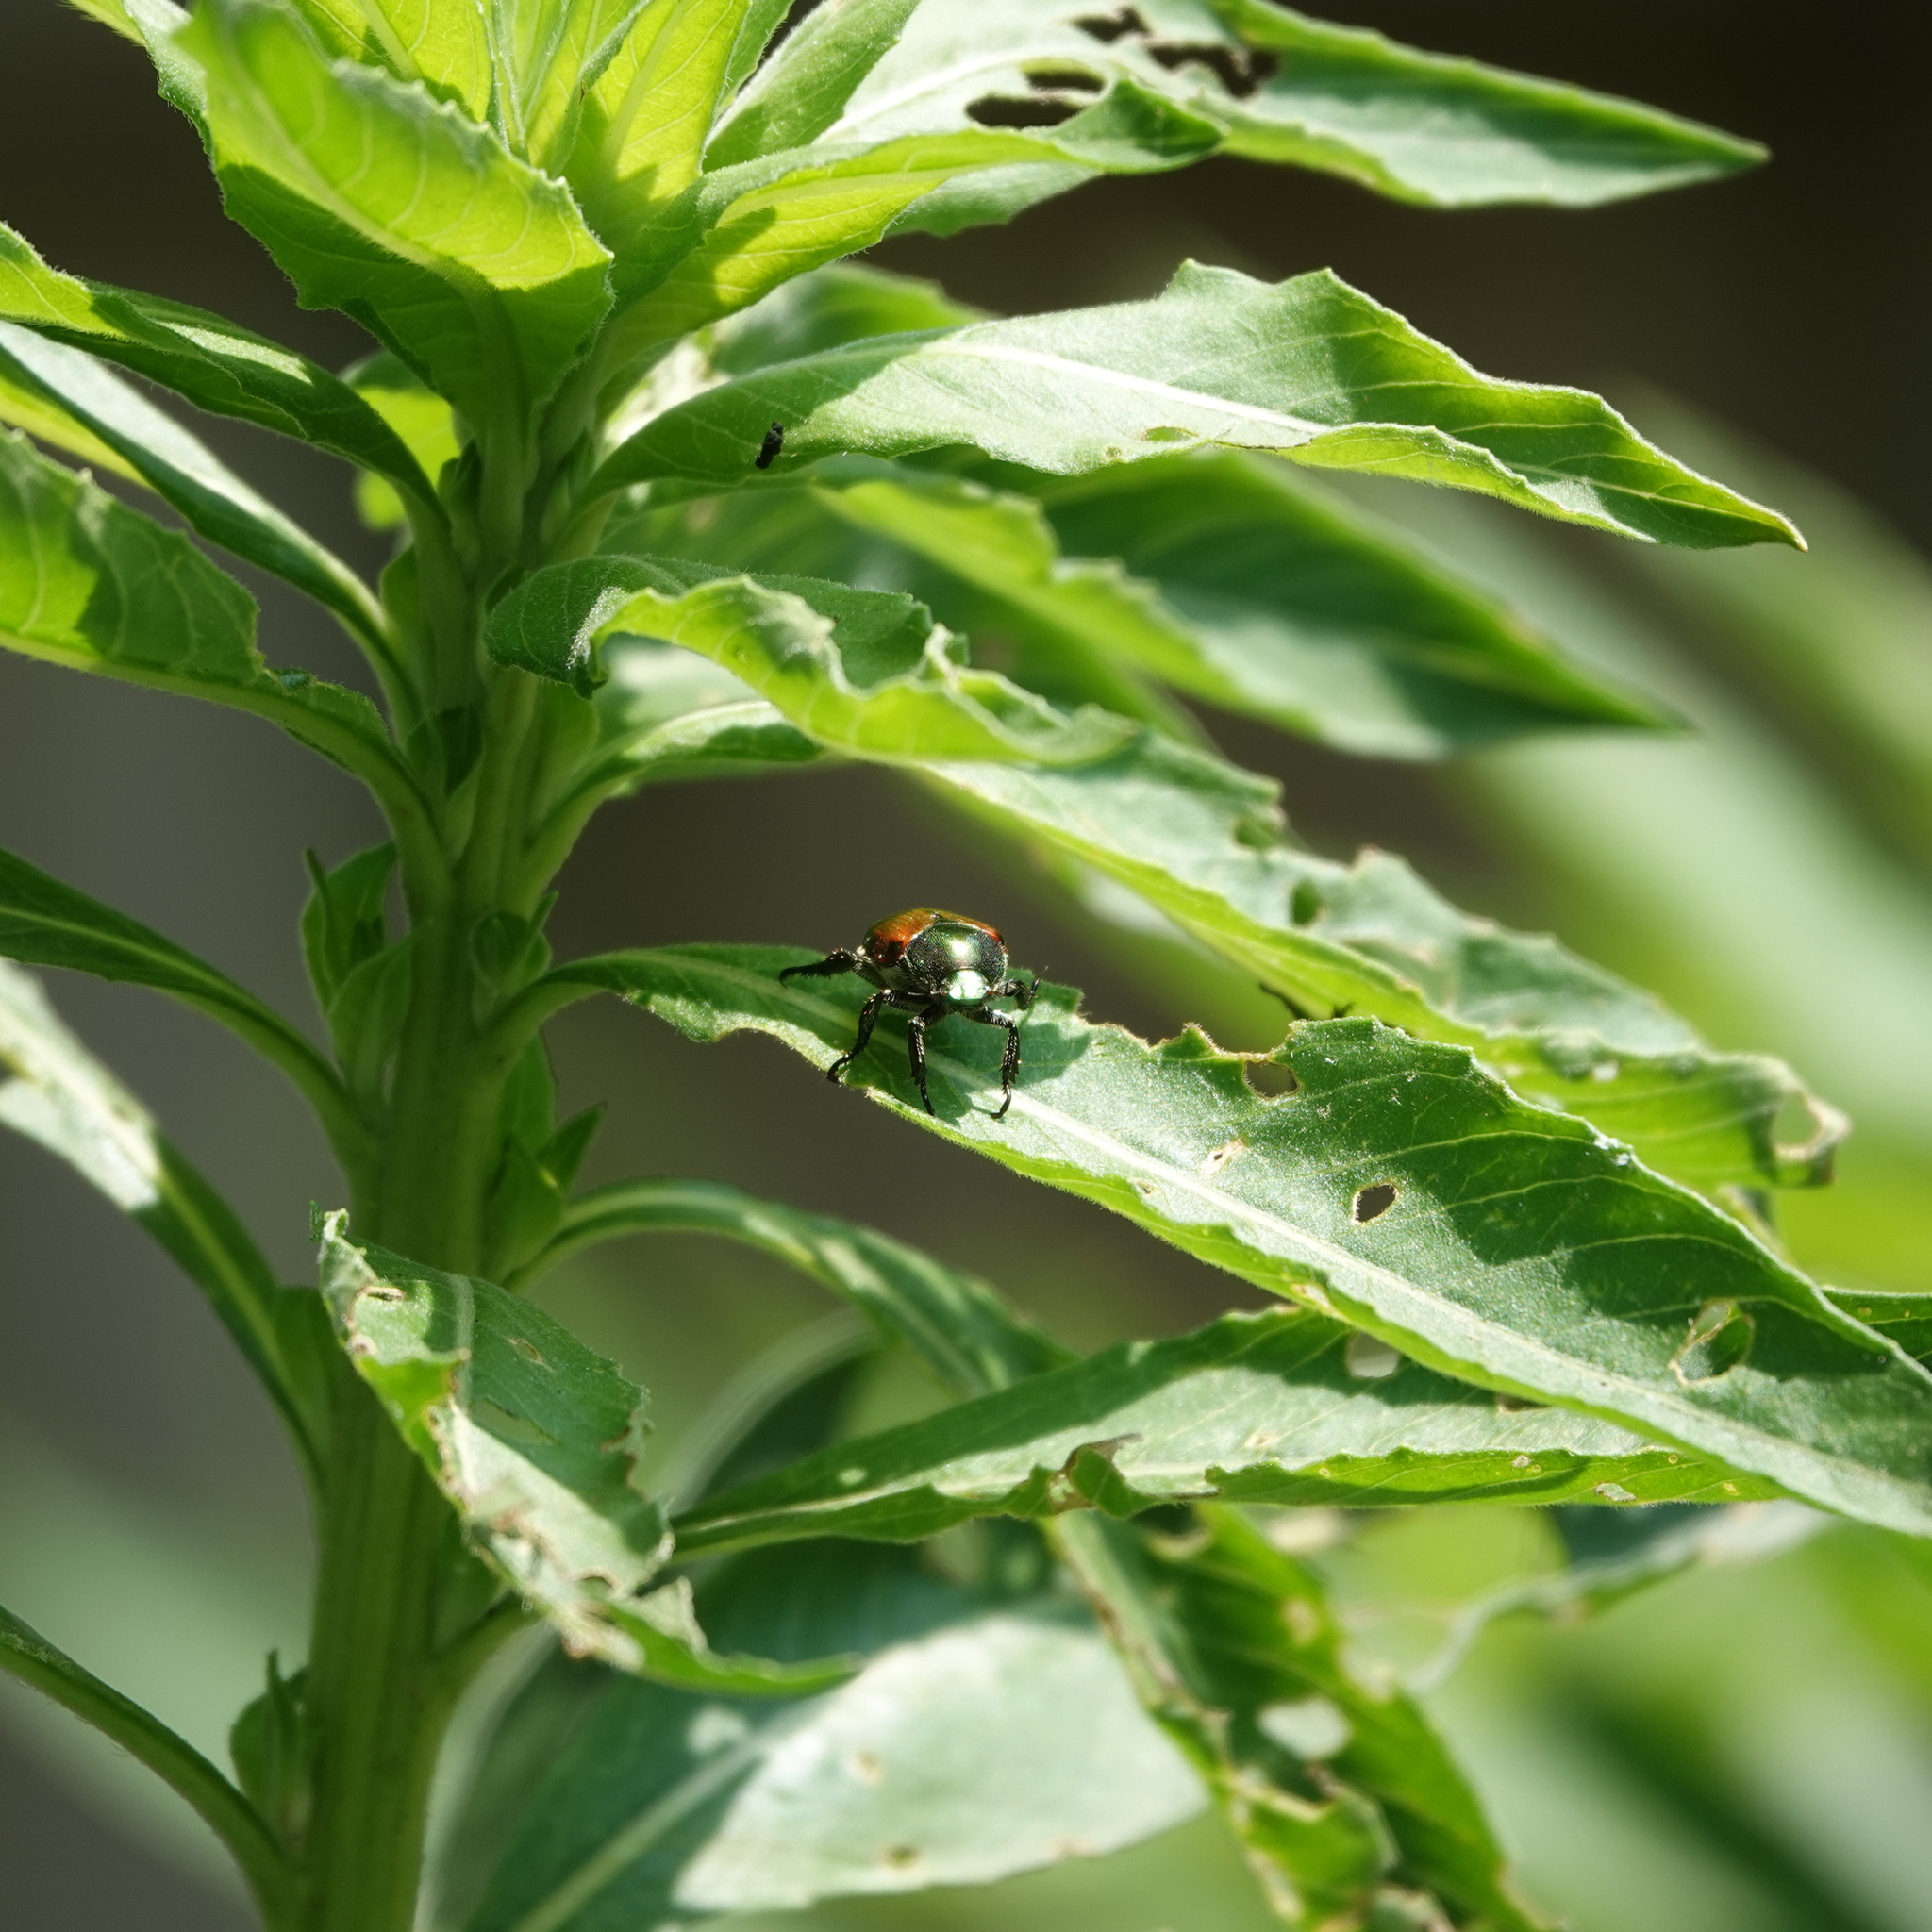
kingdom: Animalia
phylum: Arthropoda
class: Insecta
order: Coleoptera
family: Scarabaeidae
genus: Popillia
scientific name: Popillia japonica
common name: Japanese beetle
